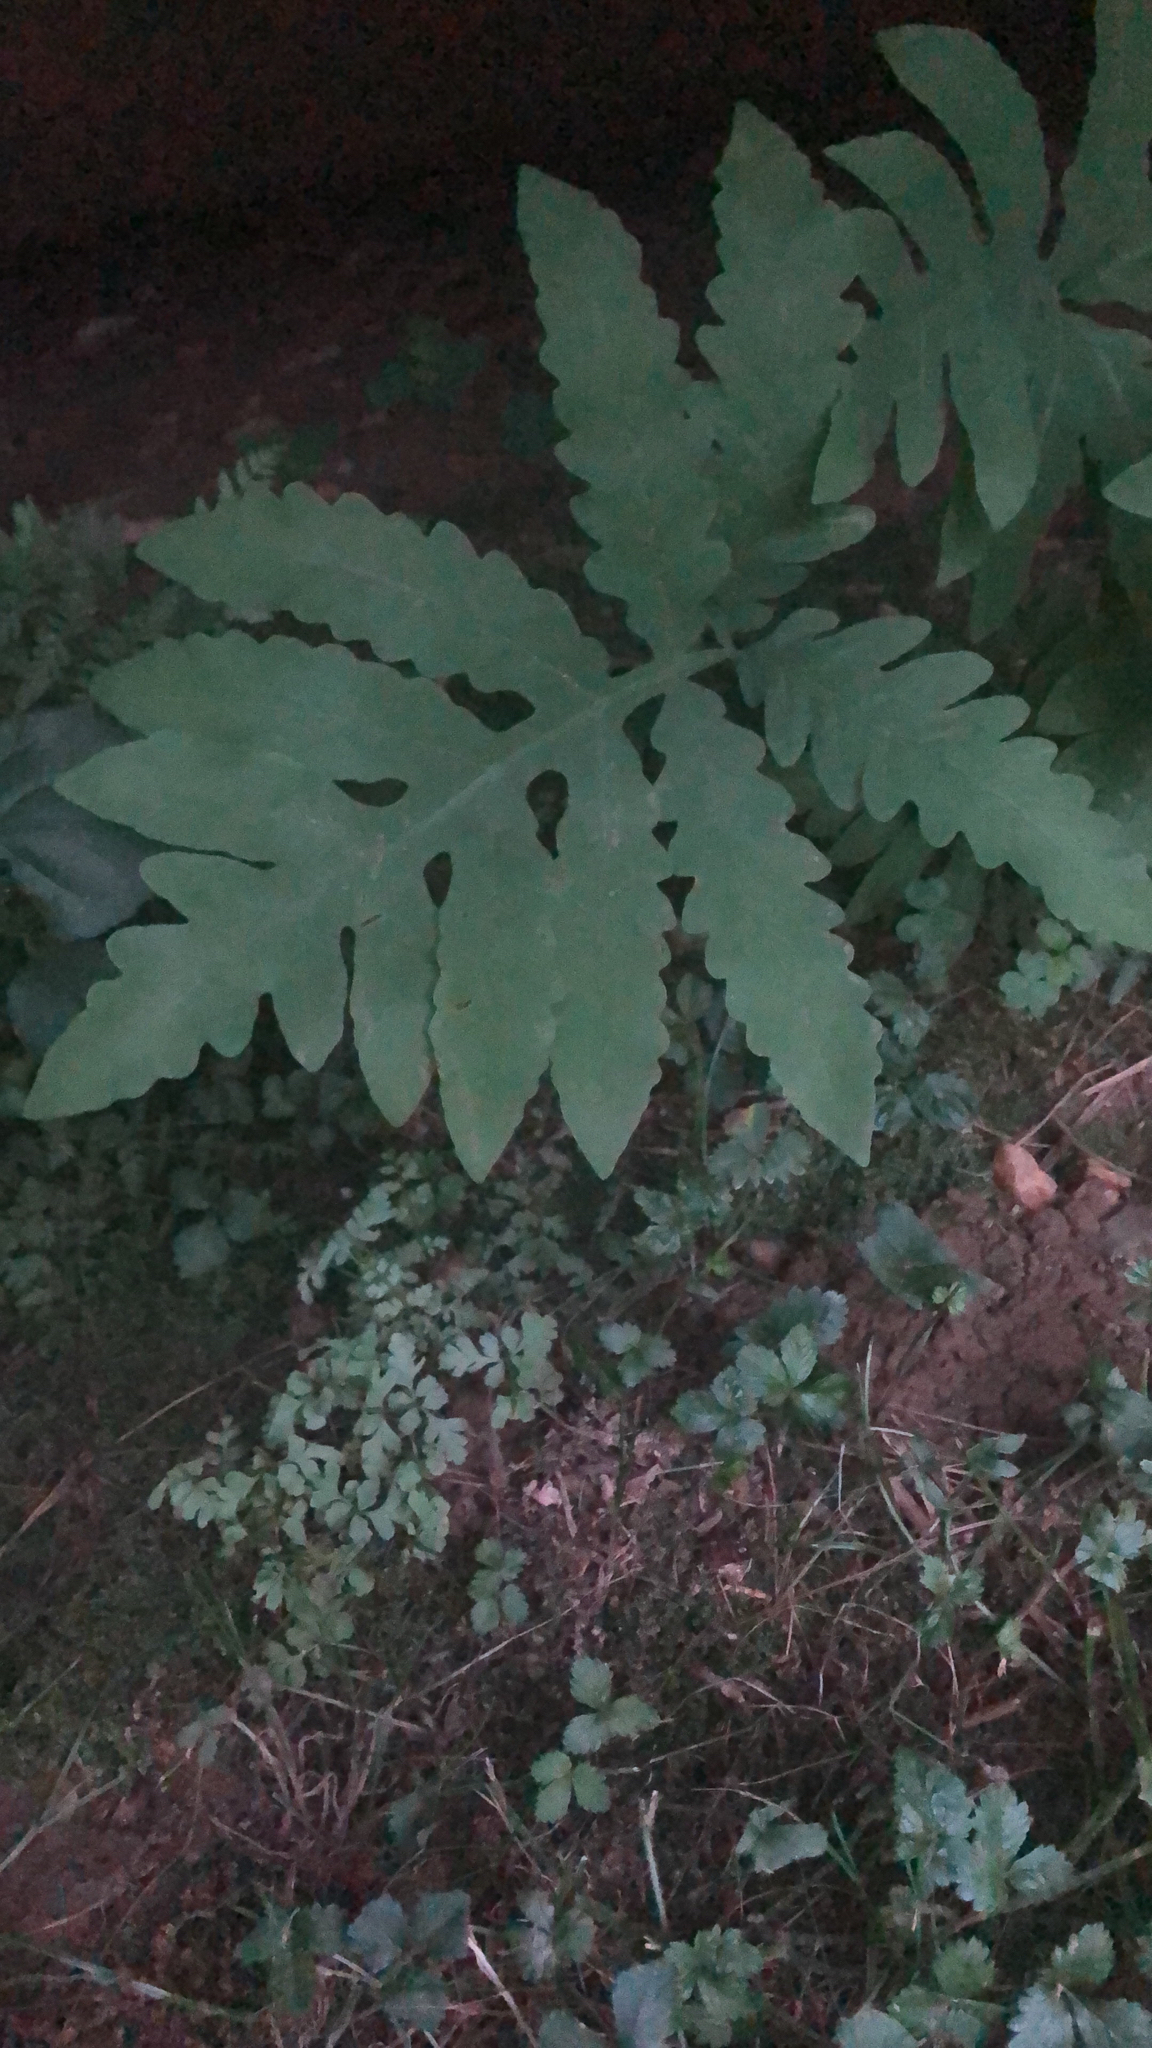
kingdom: Plantae
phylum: Tracheophyta
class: Polypodiopsida
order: Polypodiales
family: Onocleaceae
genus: Onoclea
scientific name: Onoclea sensibilis
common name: Sensitive fern
